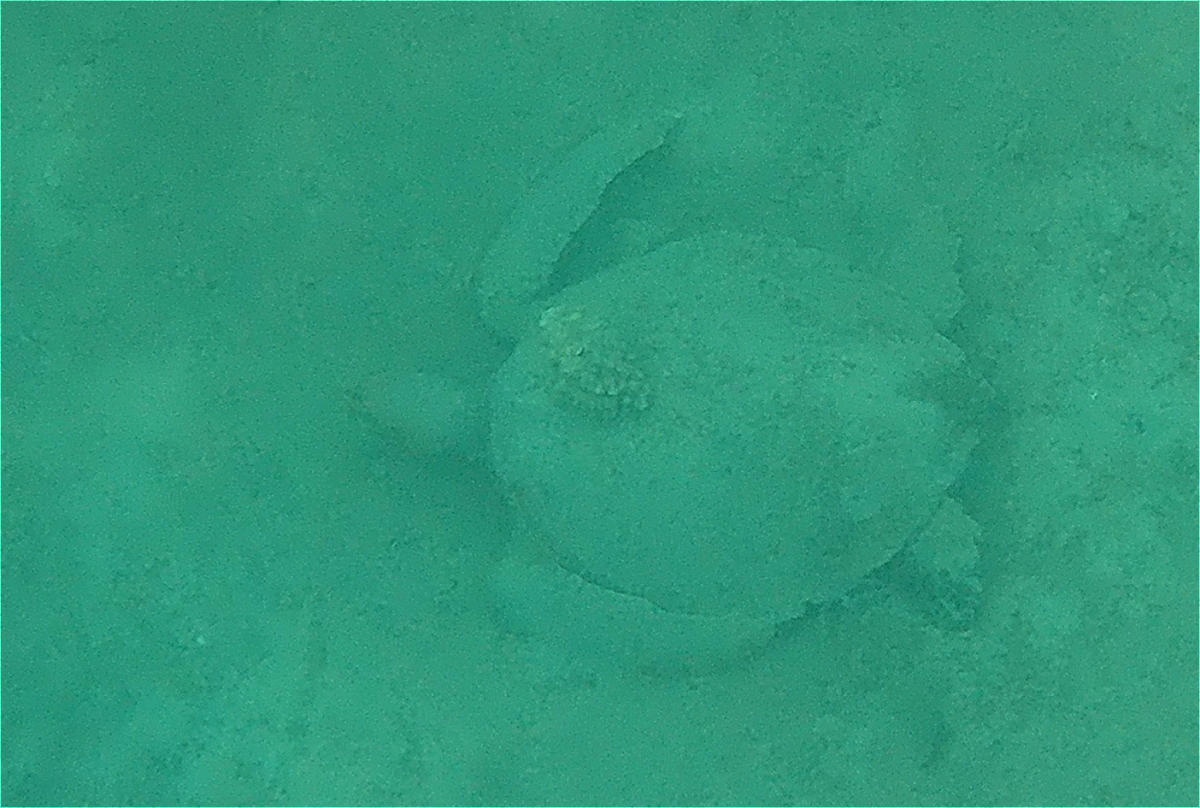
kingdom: Animalia
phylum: Chordata
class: Testudines
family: Cheloniidae
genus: Chelonia
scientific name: Chelonia mydas
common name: Green turtle
